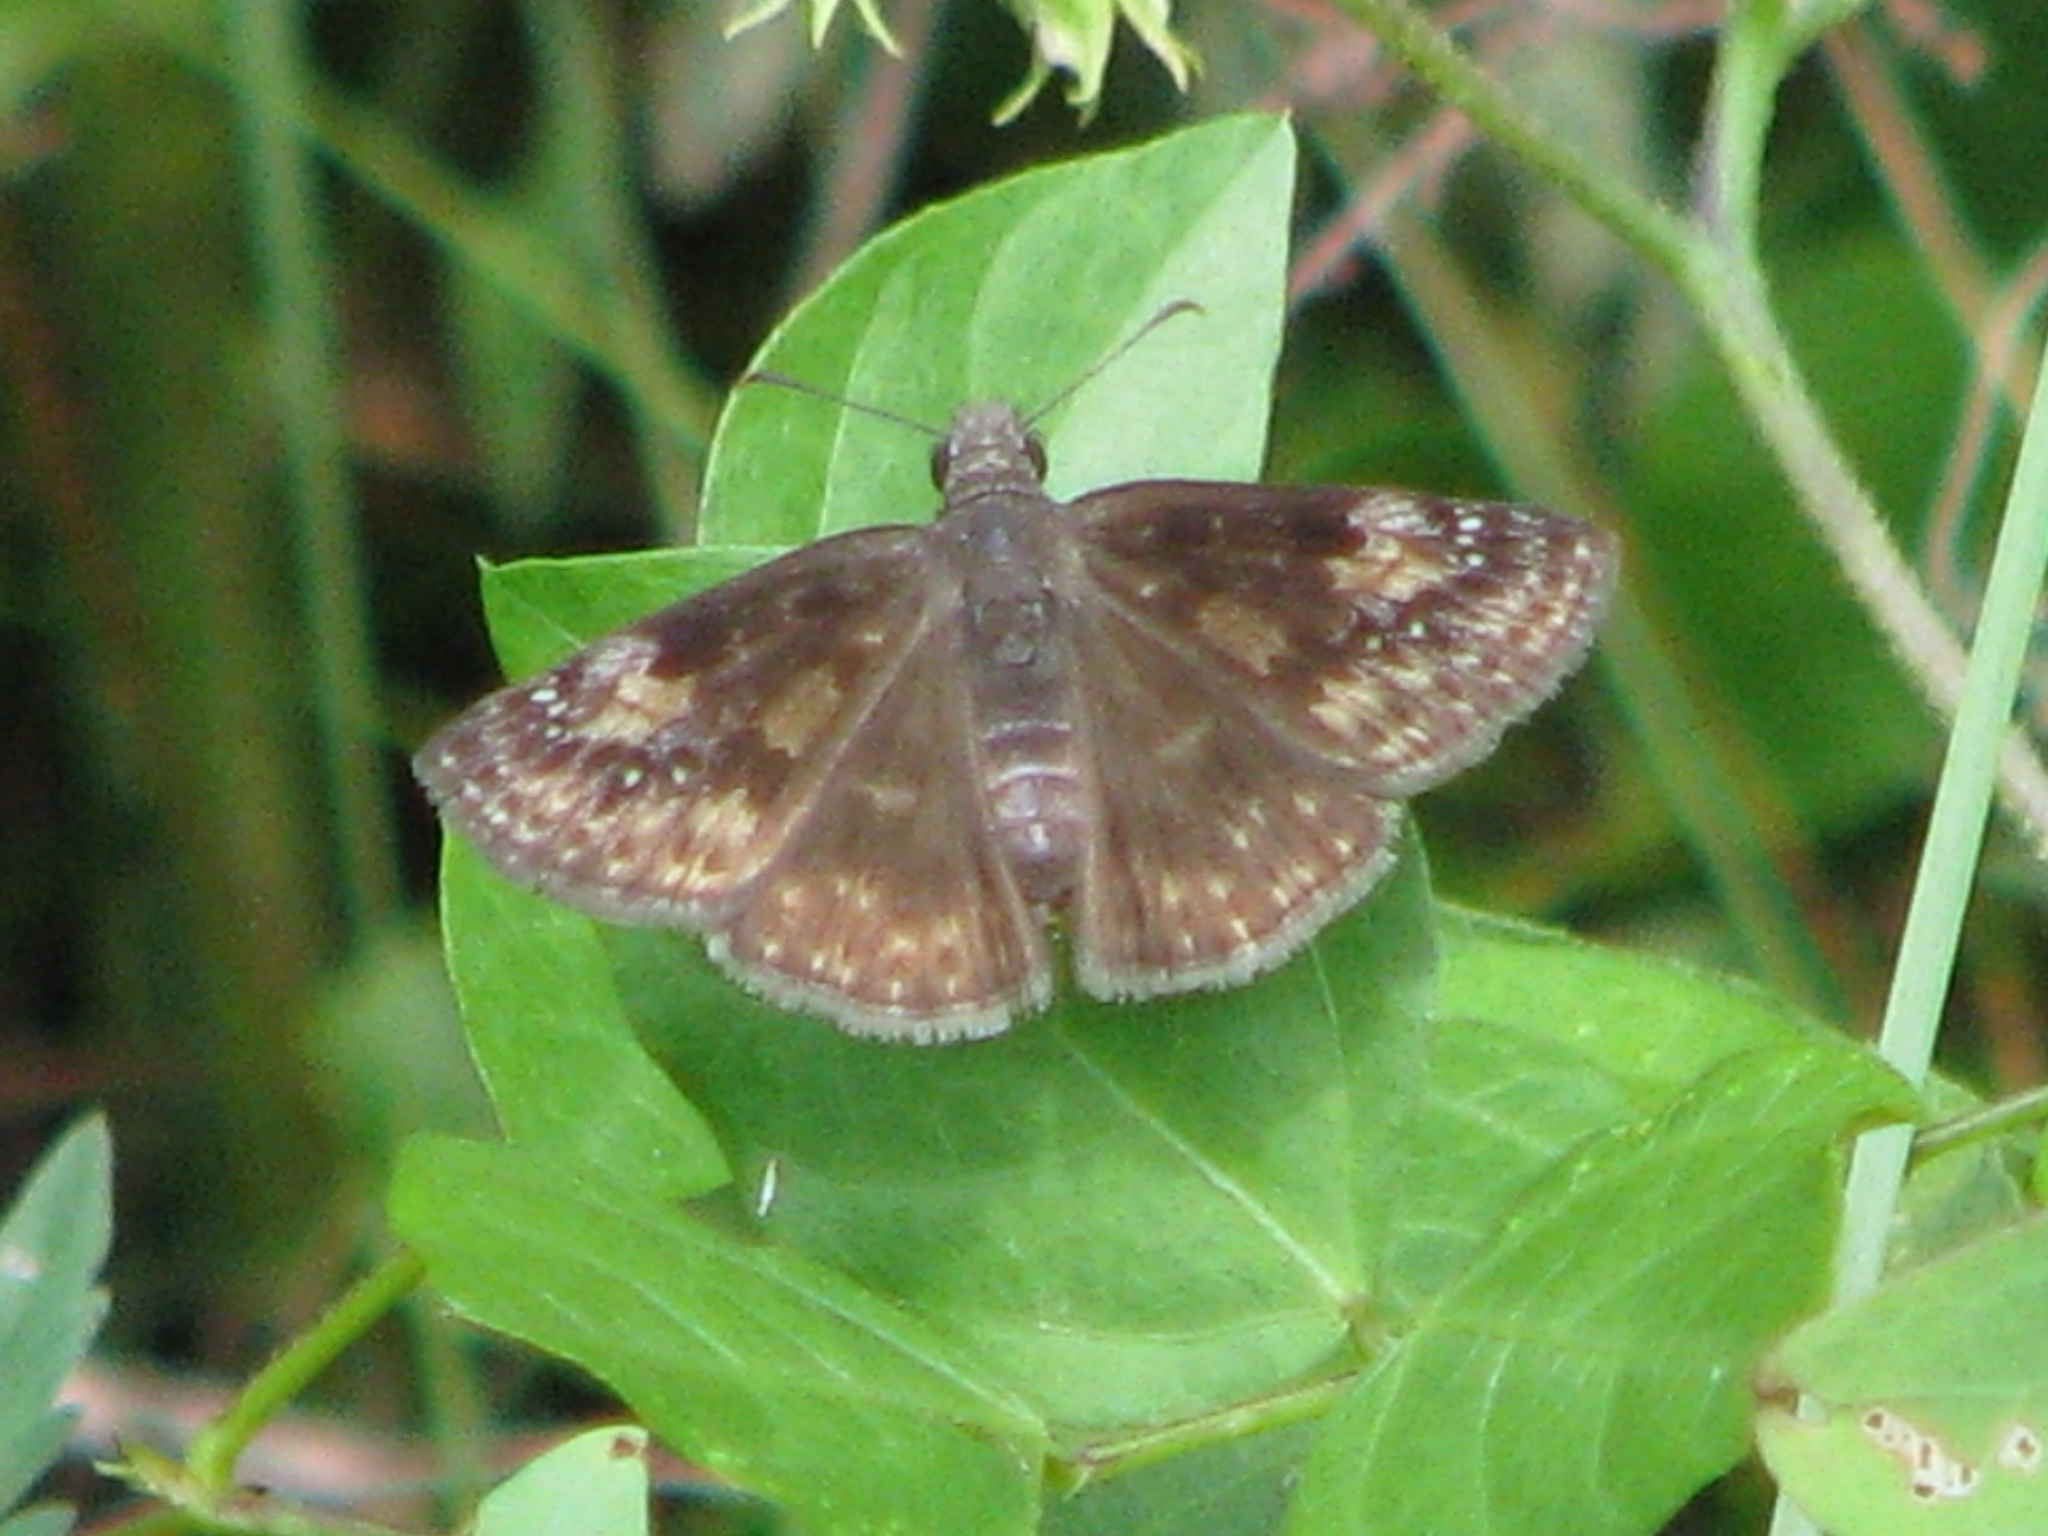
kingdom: Animalia
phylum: Arthropoda
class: Insecta
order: Lepidoptera
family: Hesperiidae
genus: Erynnis
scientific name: Erynnis baptisiae
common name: Wild indigo duskywing
